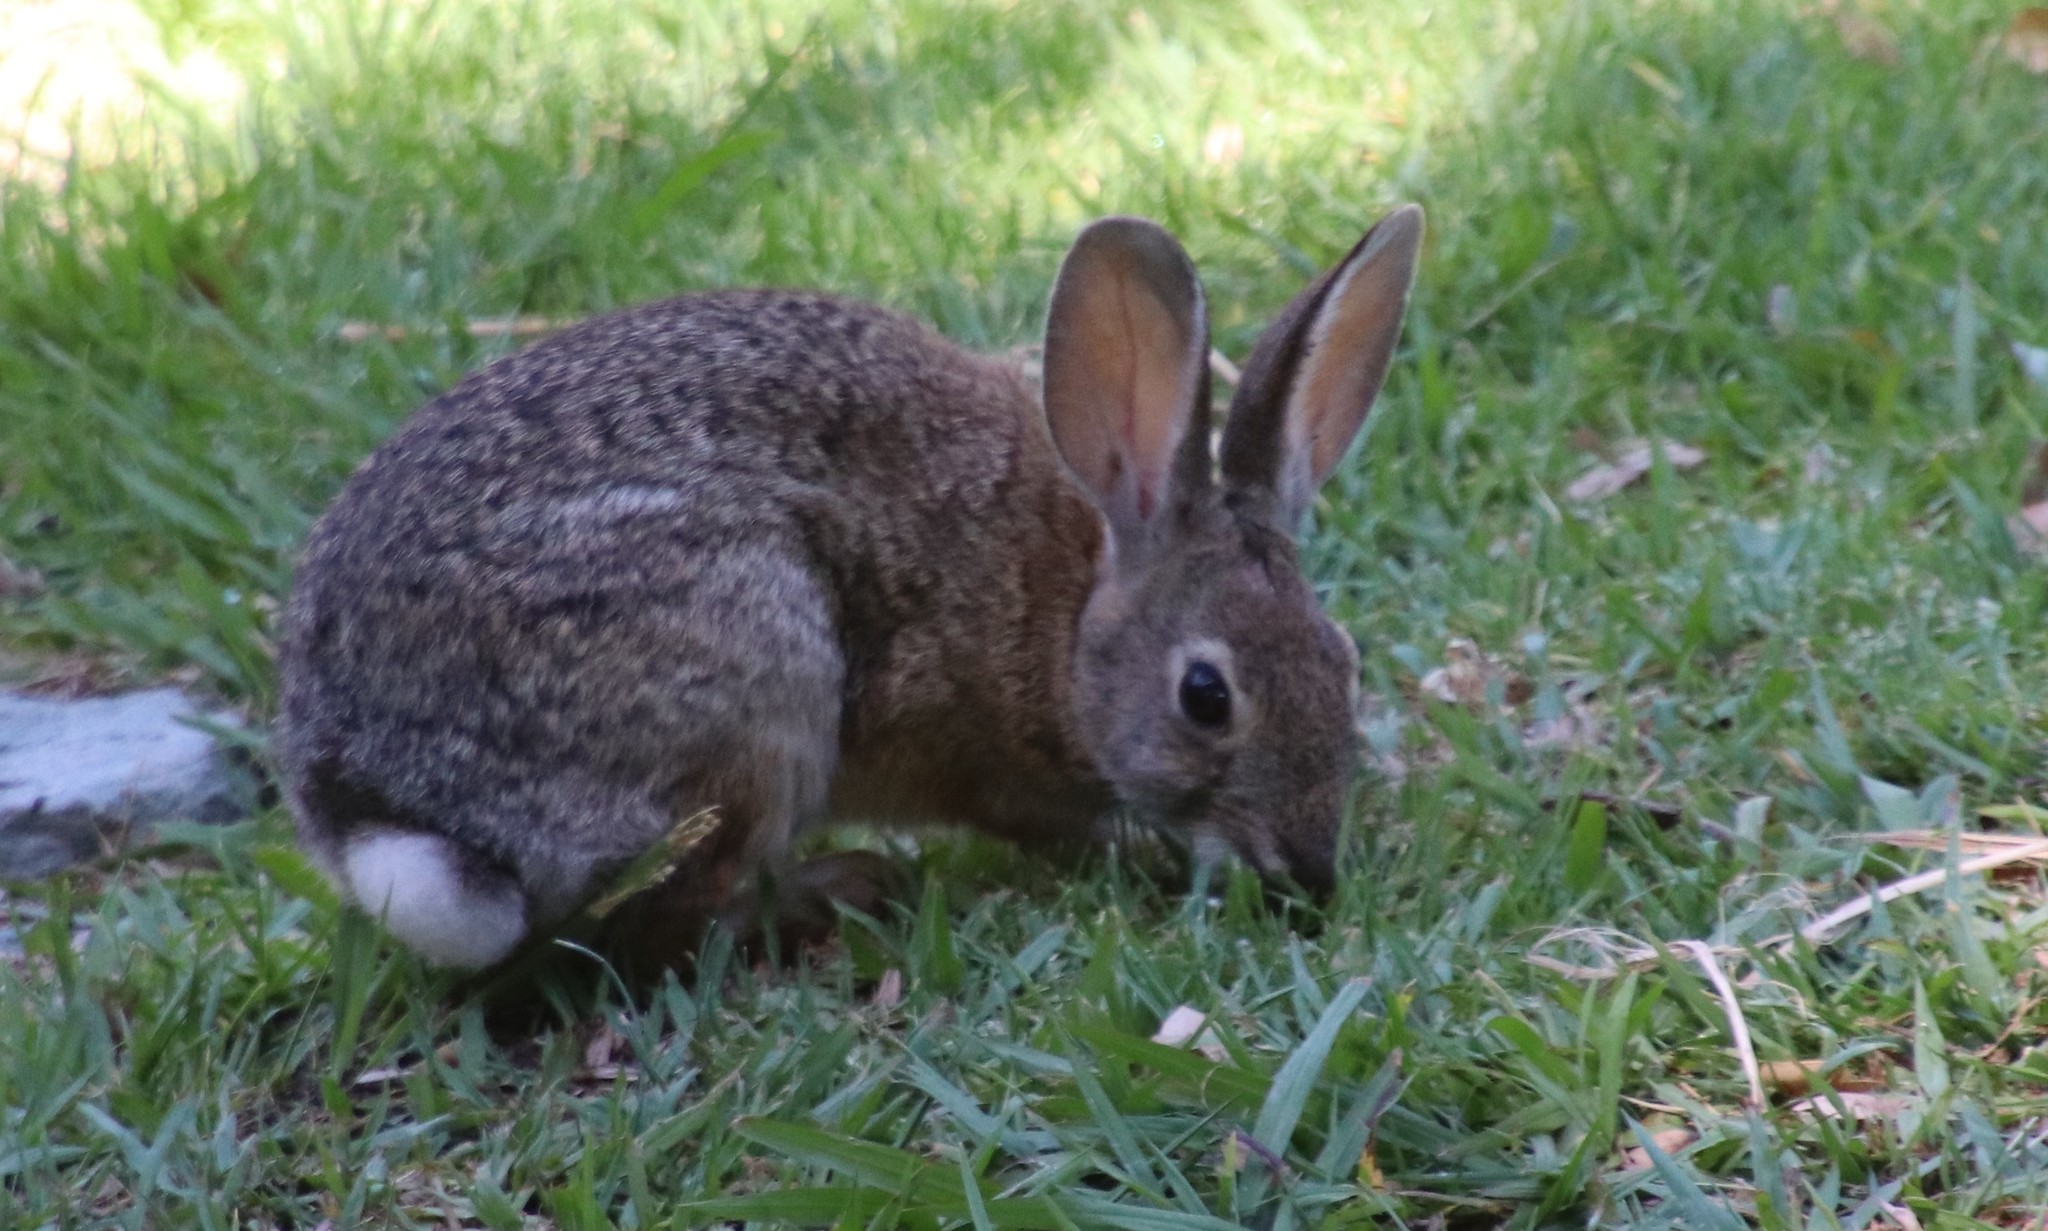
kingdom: Animalia
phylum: Chordata
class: Mammalia
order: Lagomorpha
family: Leporidae
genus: Sylvilagus
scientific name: Sylvilagus audubonii
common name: Desert cottontail
